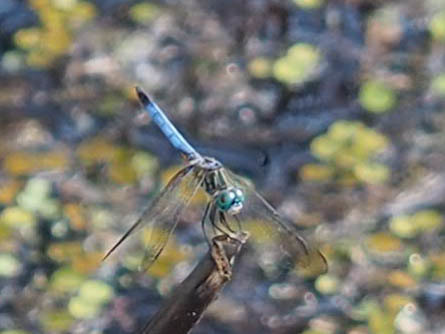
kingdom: Animalia
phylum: Arthropoda
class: Insecta
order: Odonata
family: Libellulidae
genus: Pachydiplax
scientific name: Pachydiplax longipennis
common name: Blue dasher
